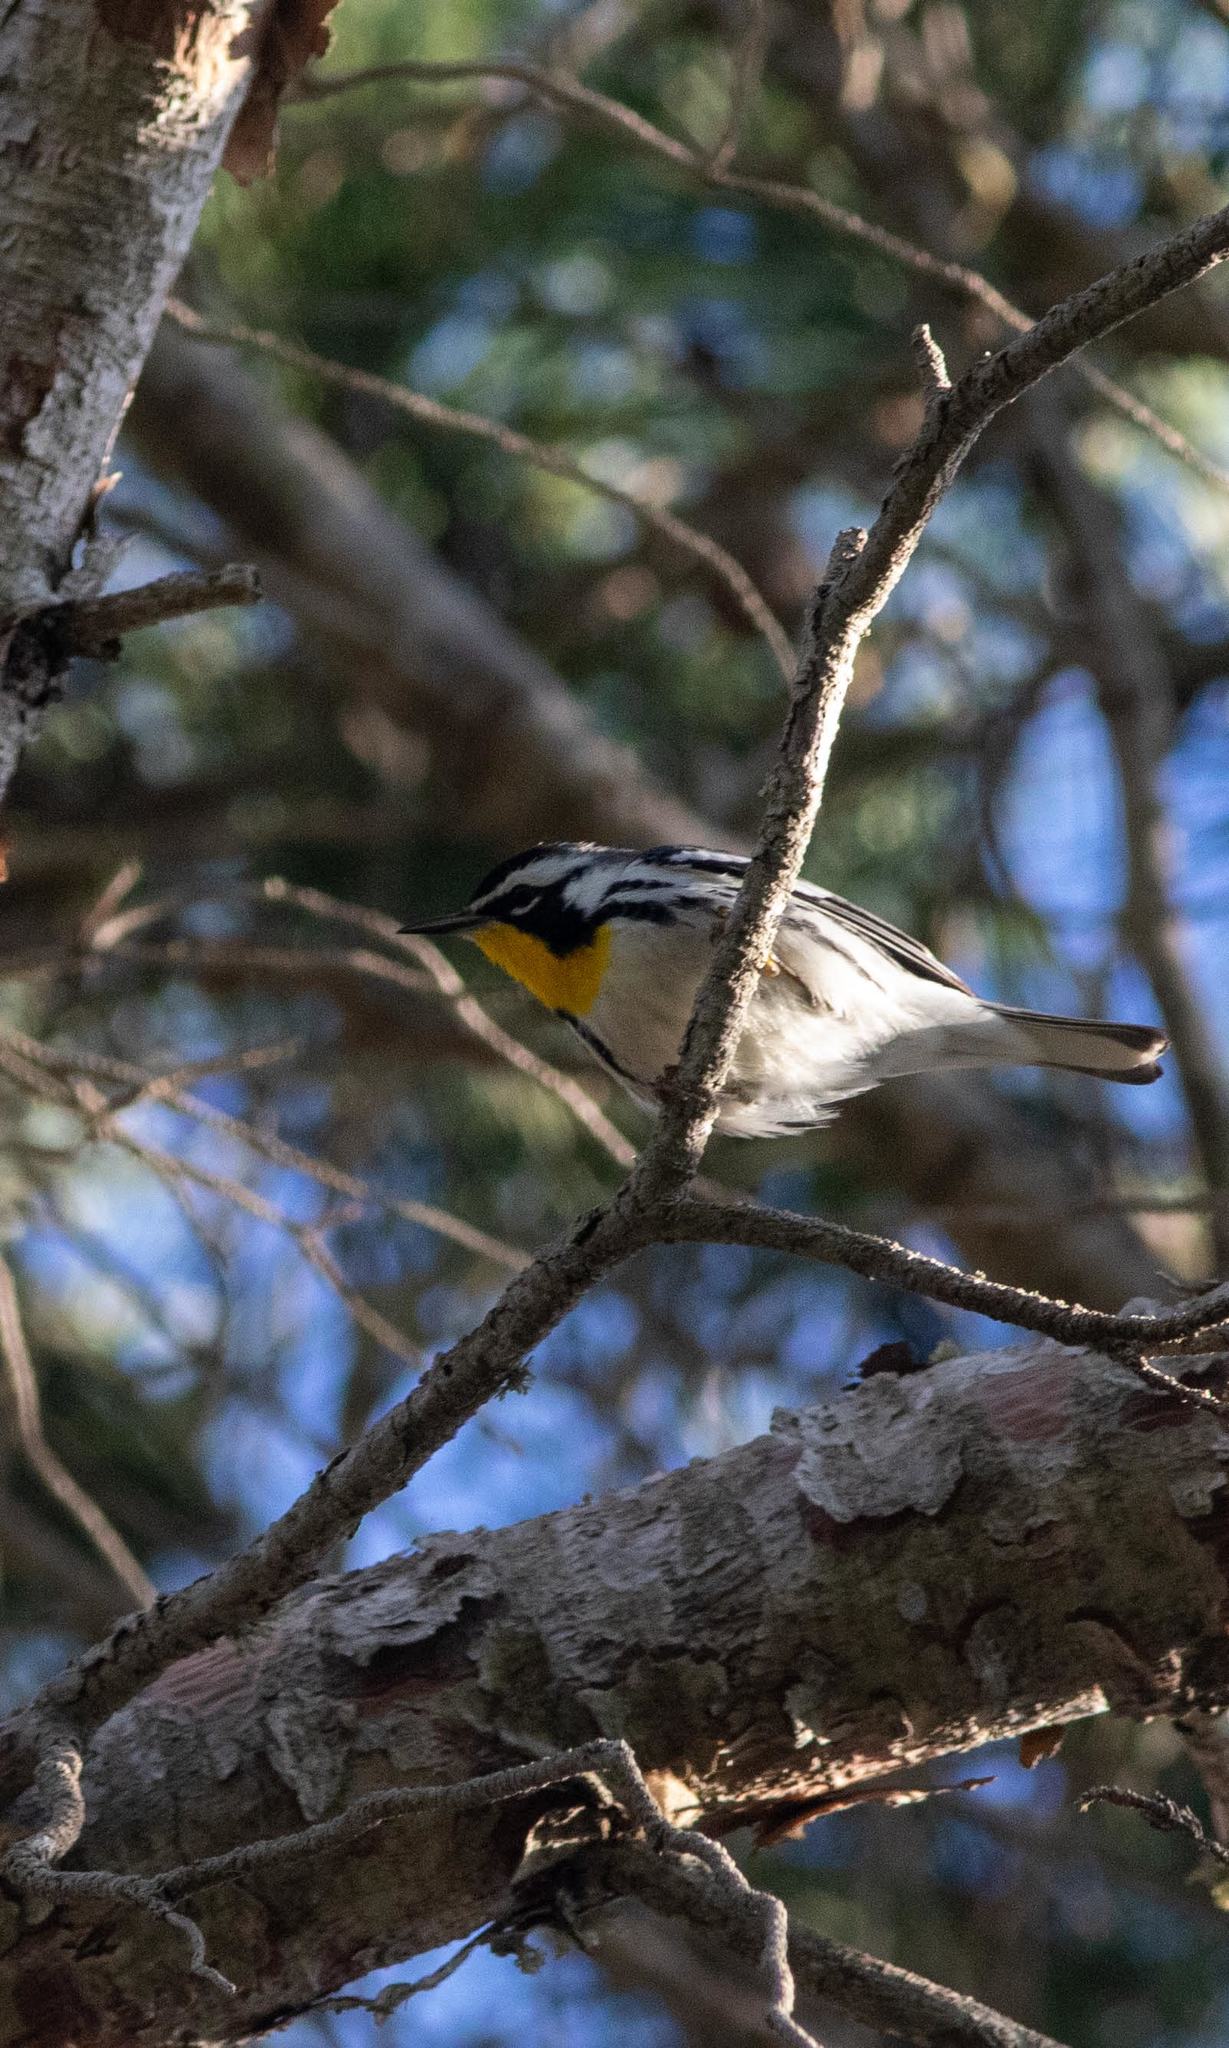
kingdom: Animalia
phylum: Chordata
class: Aves
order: Passeriformes
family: Parulidae
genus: Setophaga
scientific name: Setophaga dominica
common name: Yellow-throated warbler
